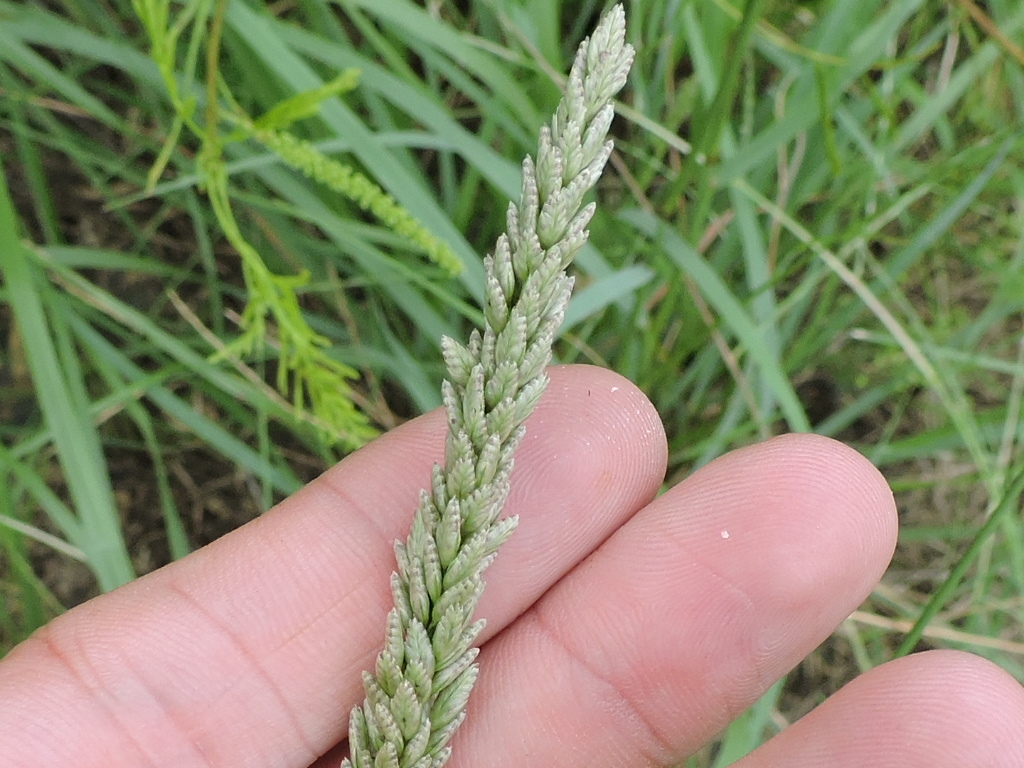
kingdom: Plantae
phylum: Tracheophyta
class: Liliopsida
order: Poales
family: Poaceae
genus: Tridens
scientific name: Tridens albescens
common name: White tridens
